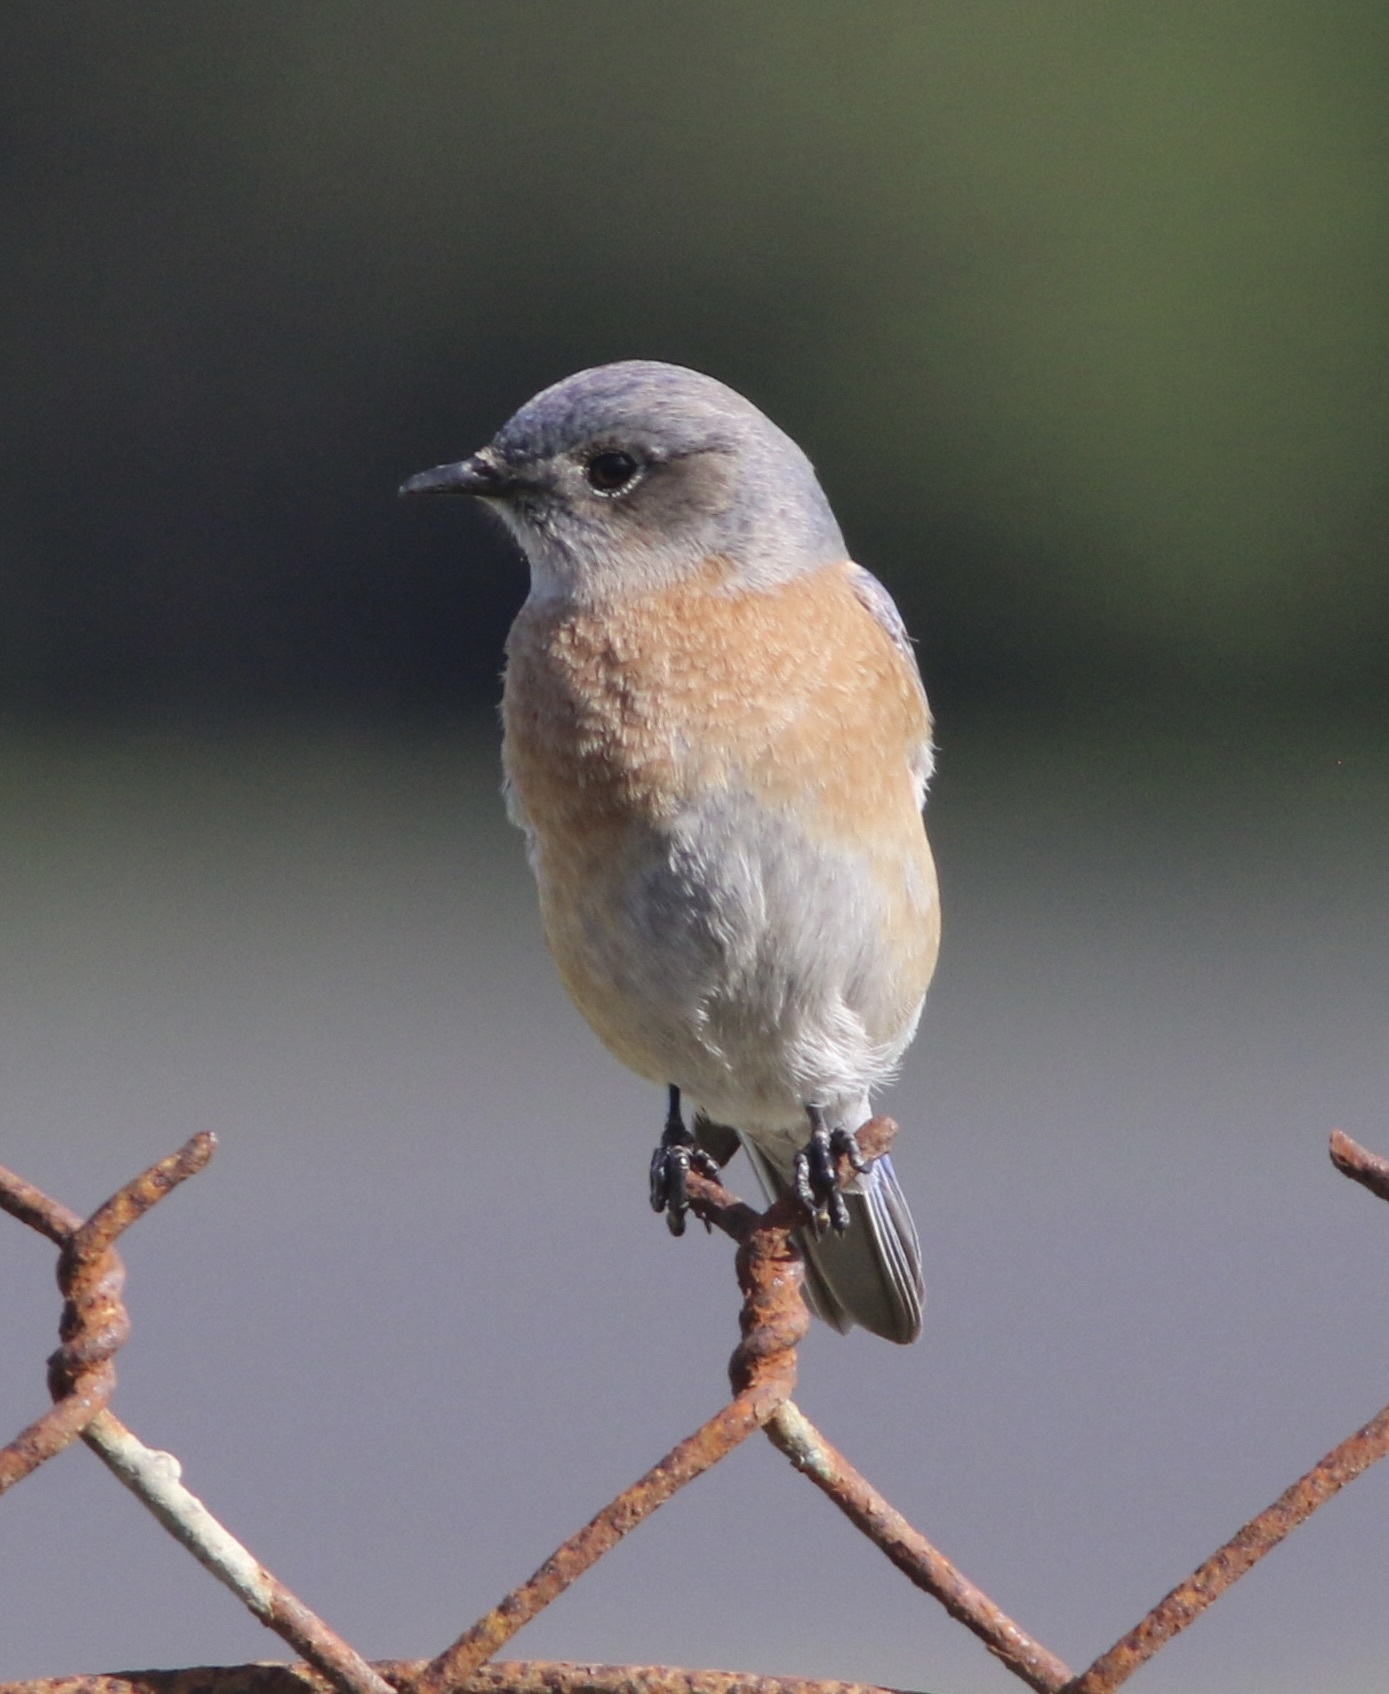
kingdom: Animalia
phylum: Chordata
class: Aves
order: Passeriformes
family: Turdidae
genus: Sialia
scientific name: Sialia mexicana
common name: Western bluebird
